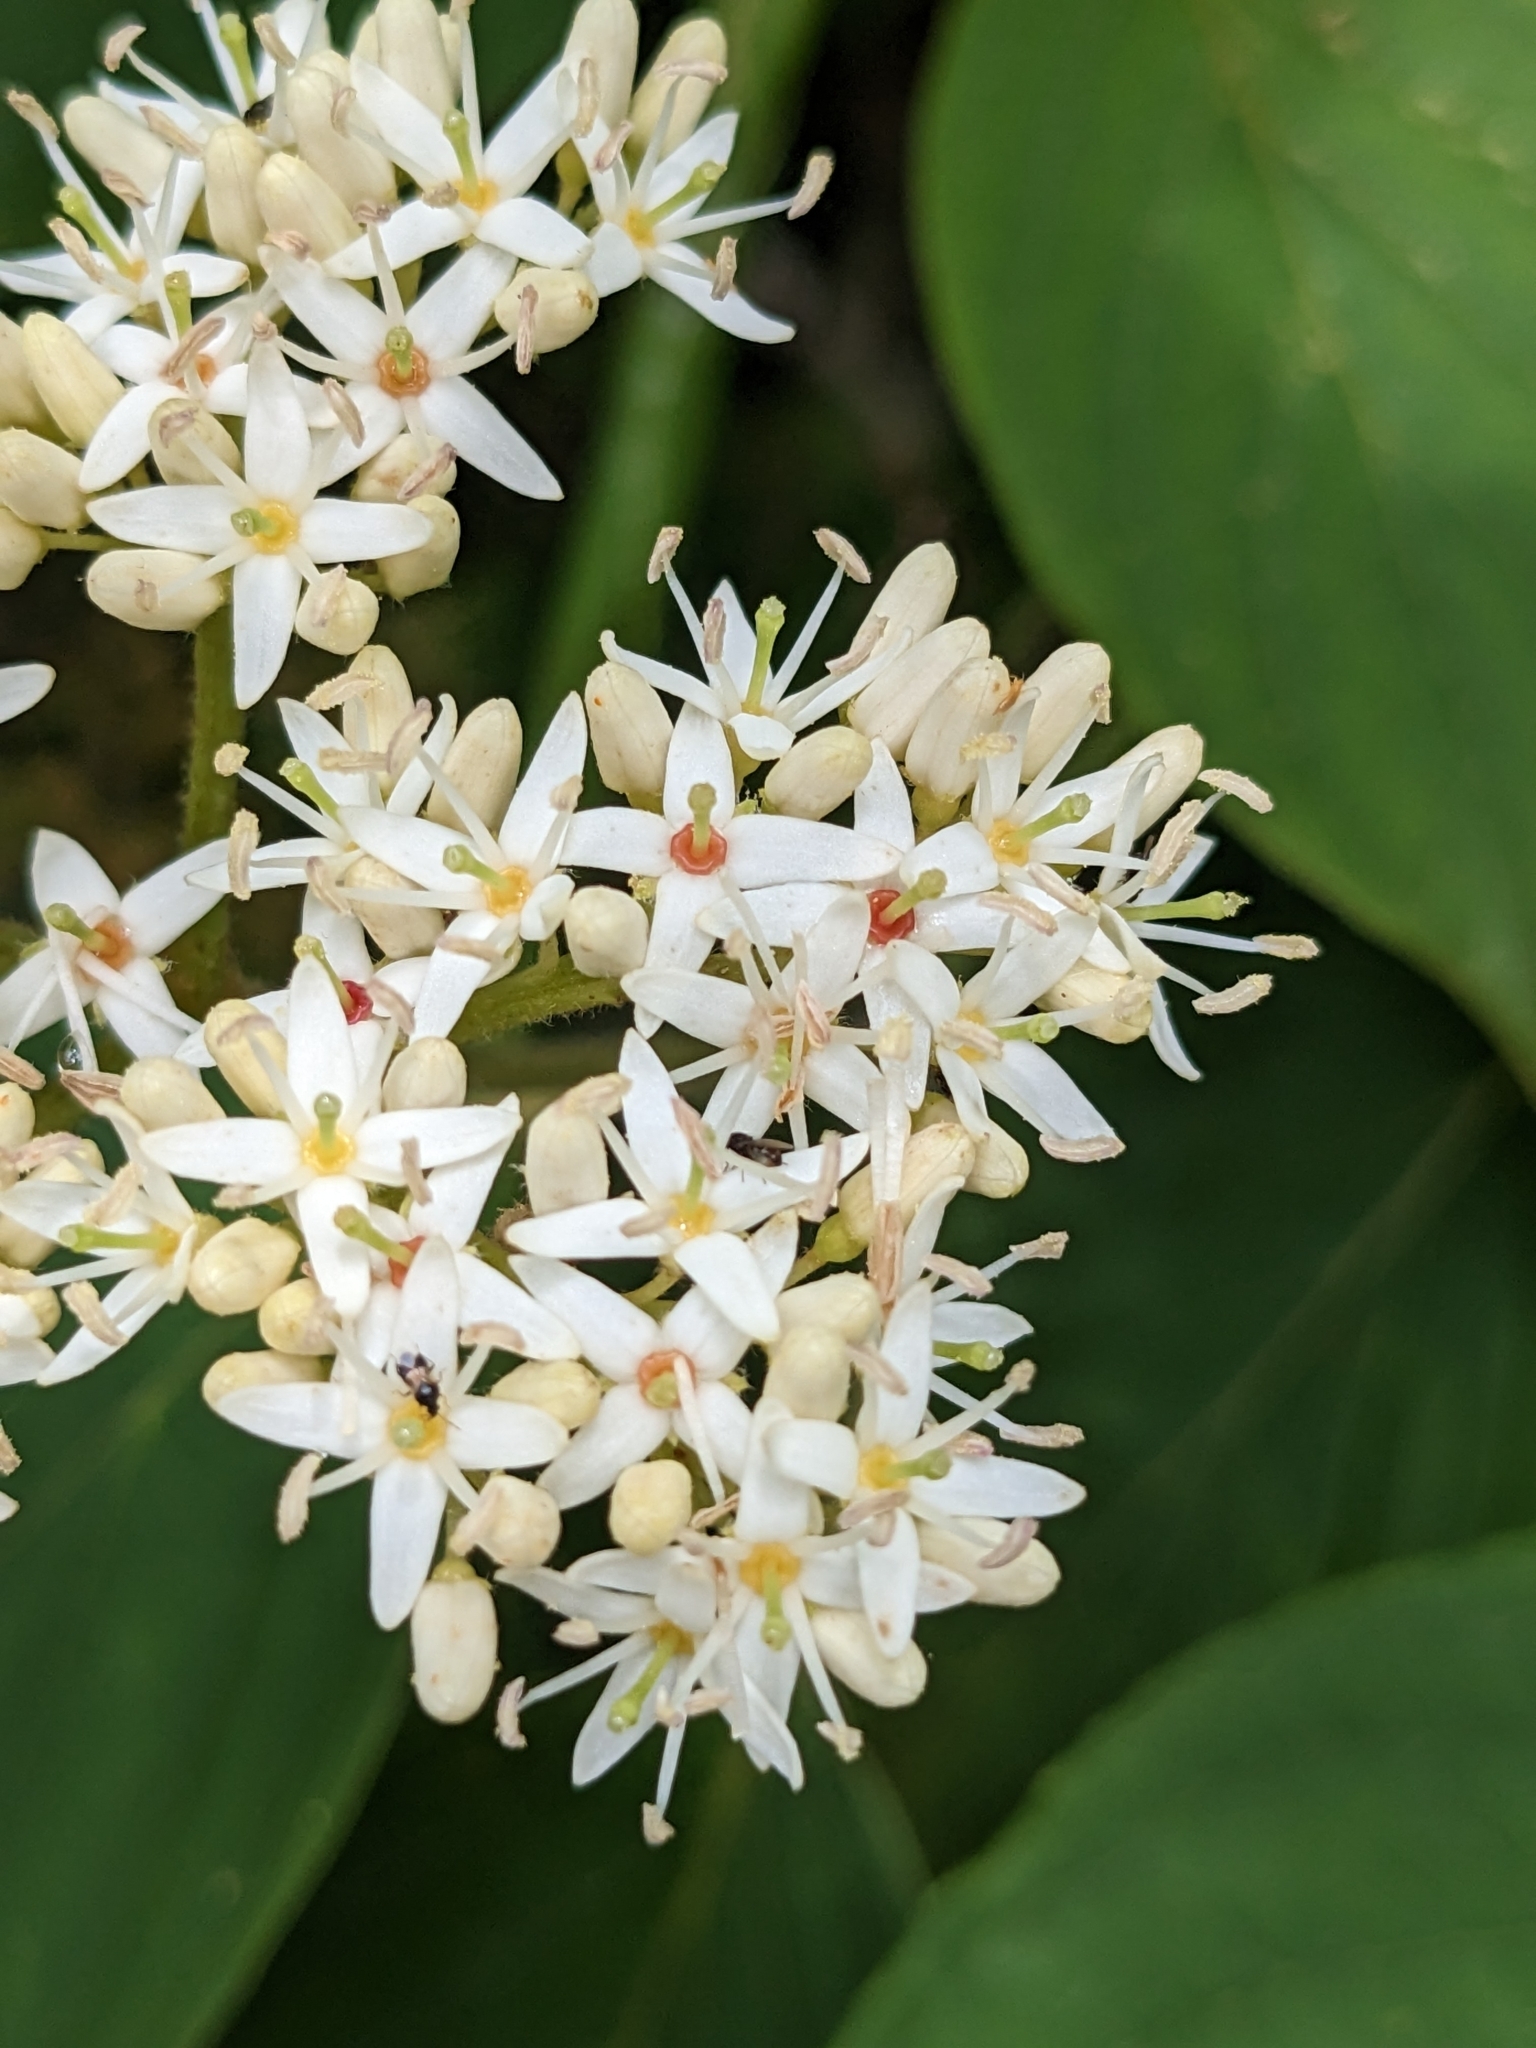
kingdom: Plantae
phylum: Tracheophyta
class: Magnoliopsida
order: Cornales
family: Cornaceae
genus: Cornus
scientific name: Cornus amomum
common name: Silky dogwood
